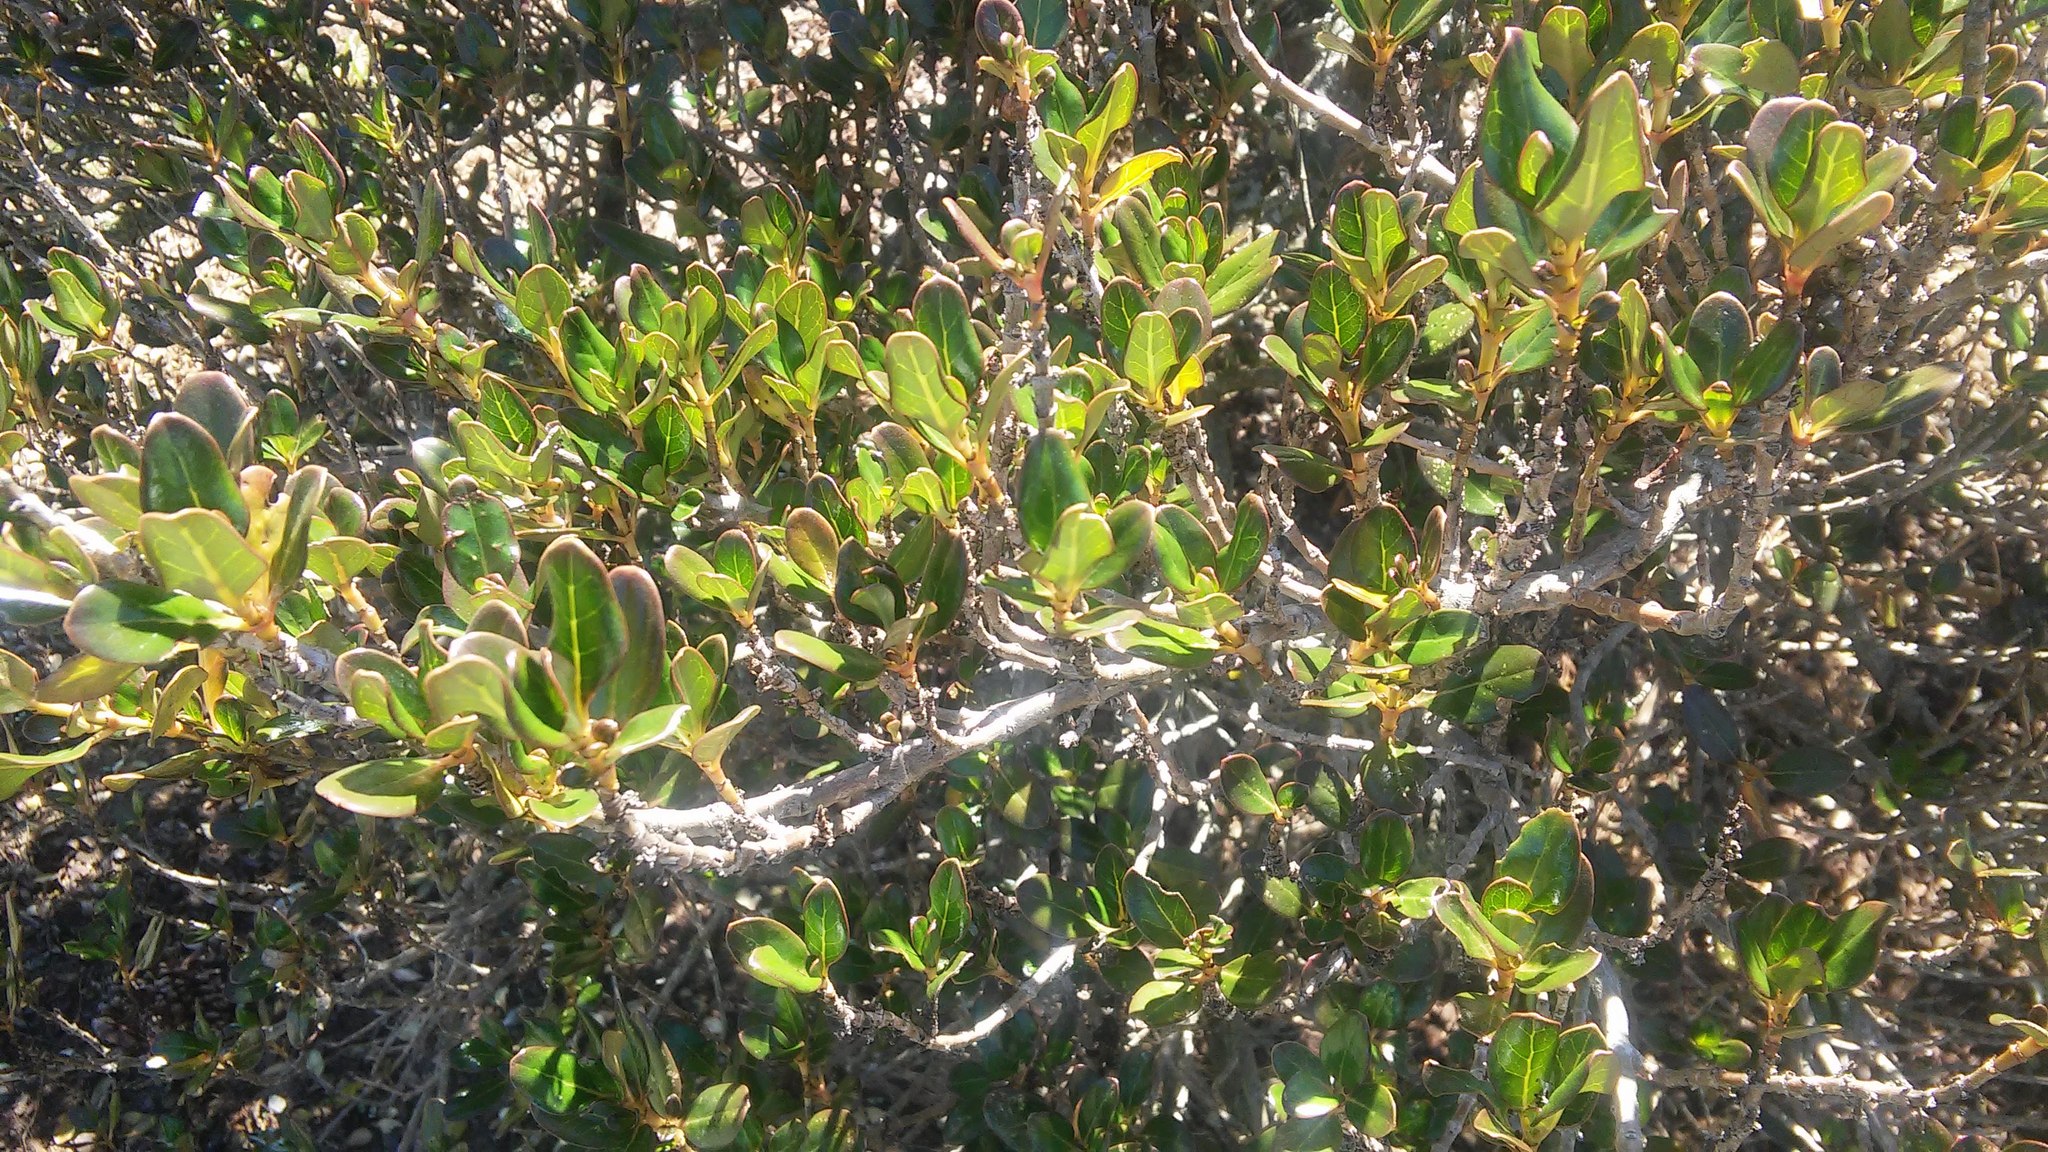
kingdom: Plantae
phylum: Tracheophyta
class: Magnoliopsida
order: Gentianales
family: Rubiaceae
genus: Coprosma
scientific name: Coprosma repens
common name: Tree bedstraw
